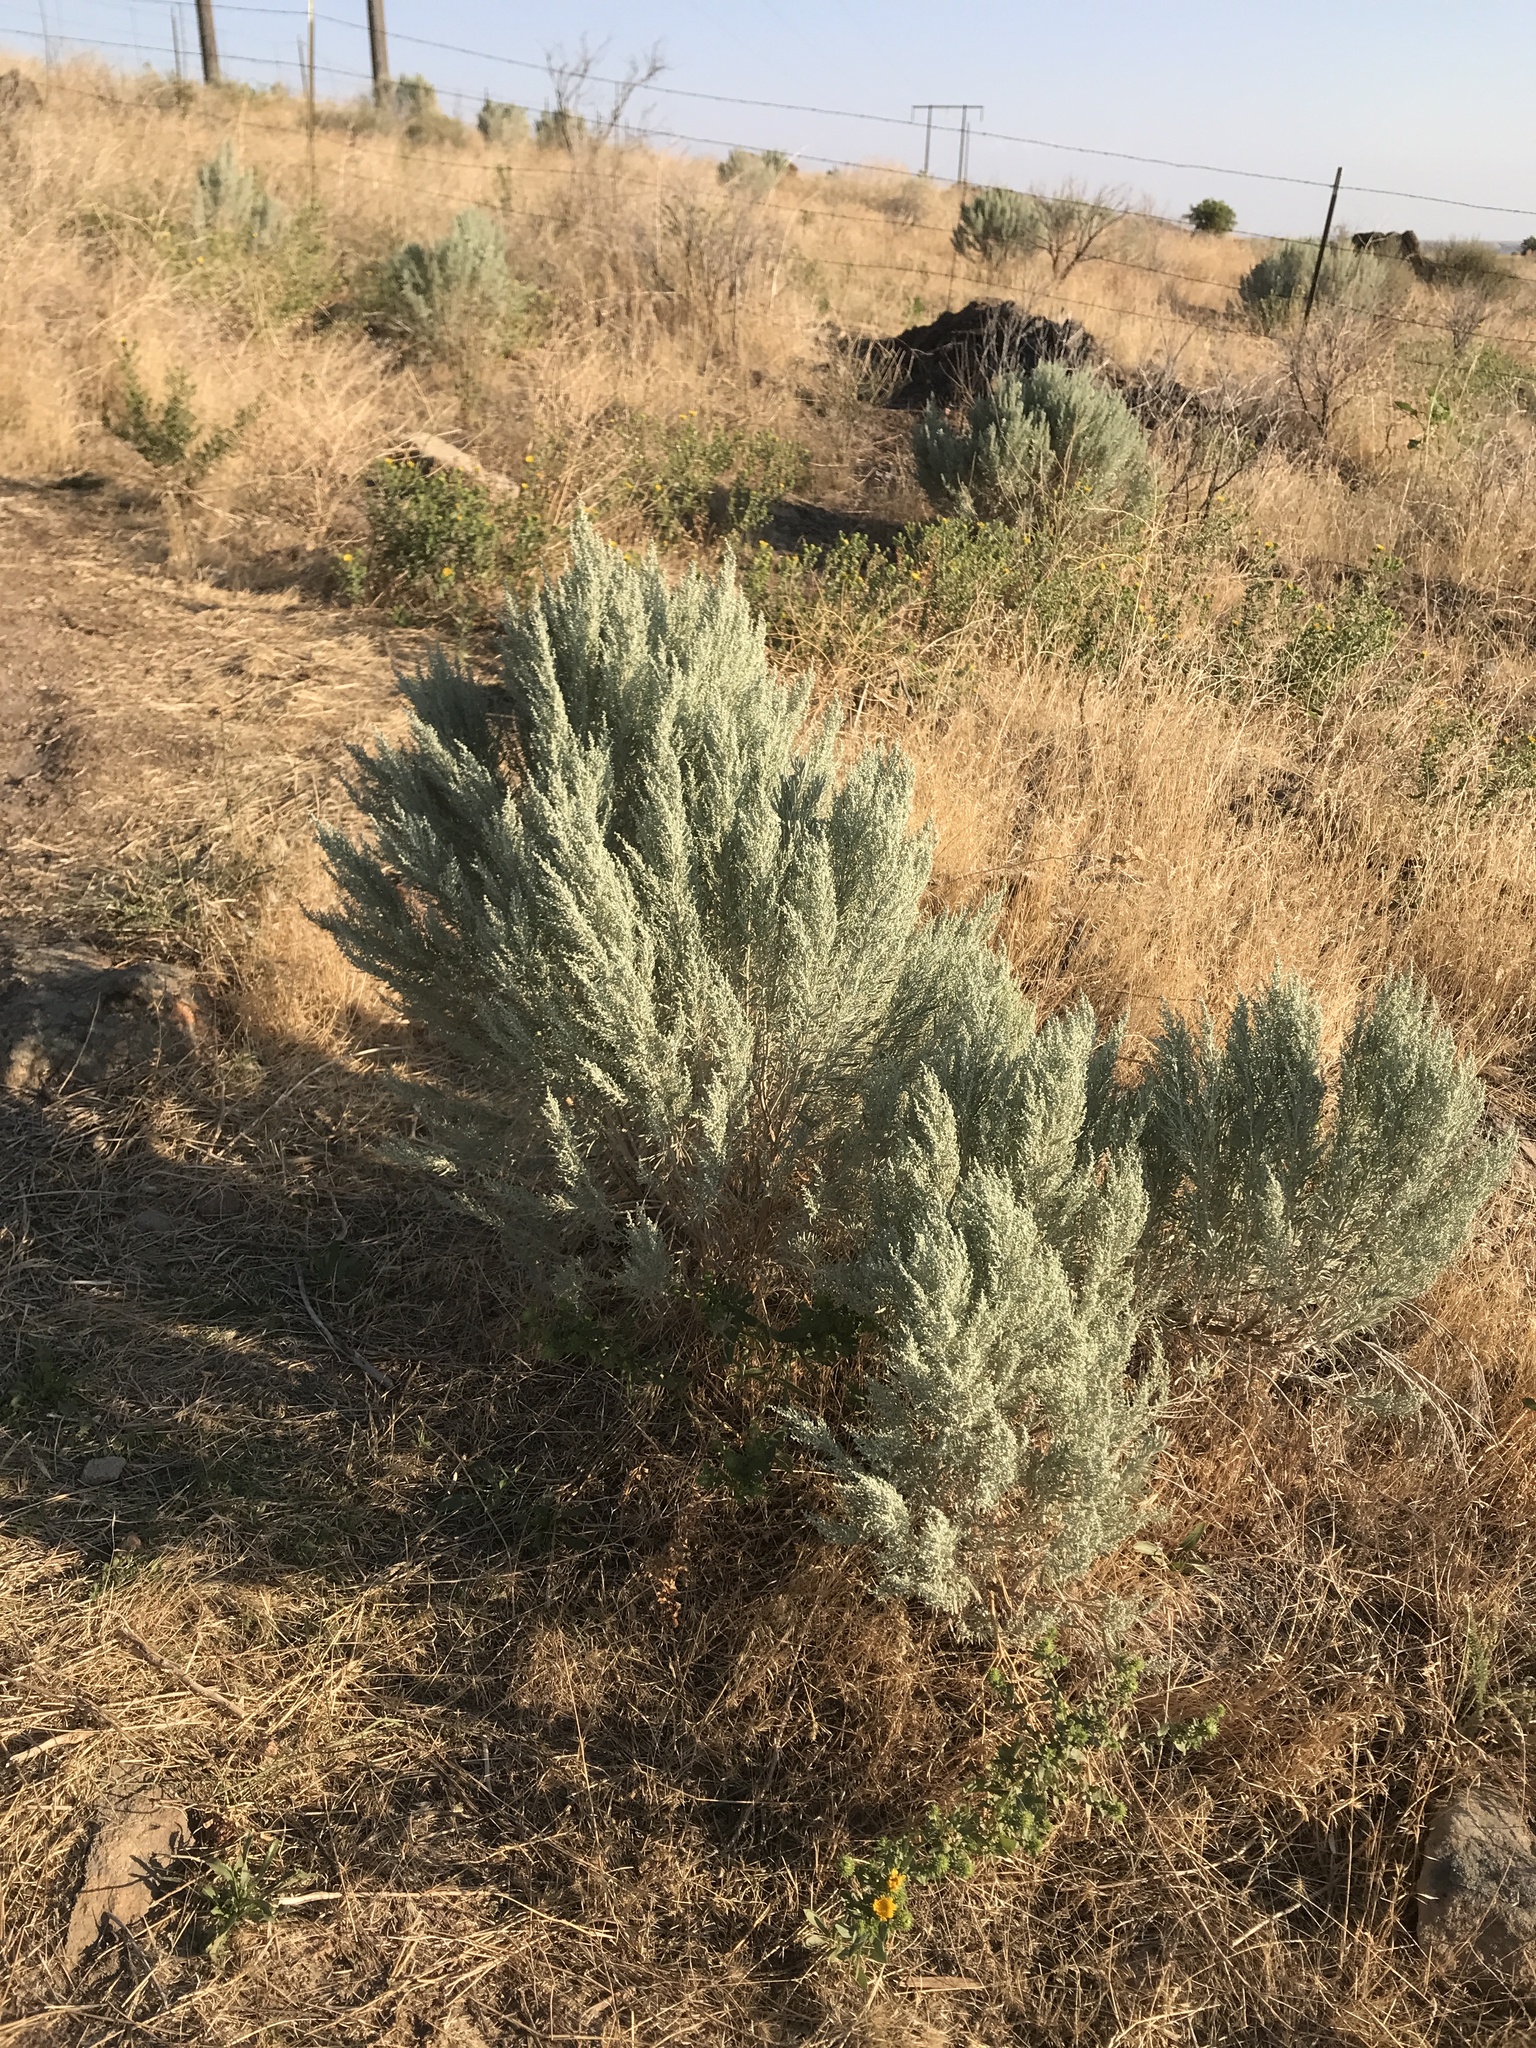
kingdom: Plantae
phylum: Tracheophyta
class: Magnoliopsida
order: Asterales
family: Asteraceae
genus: Artemisia
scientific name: Artemisia tridentata
